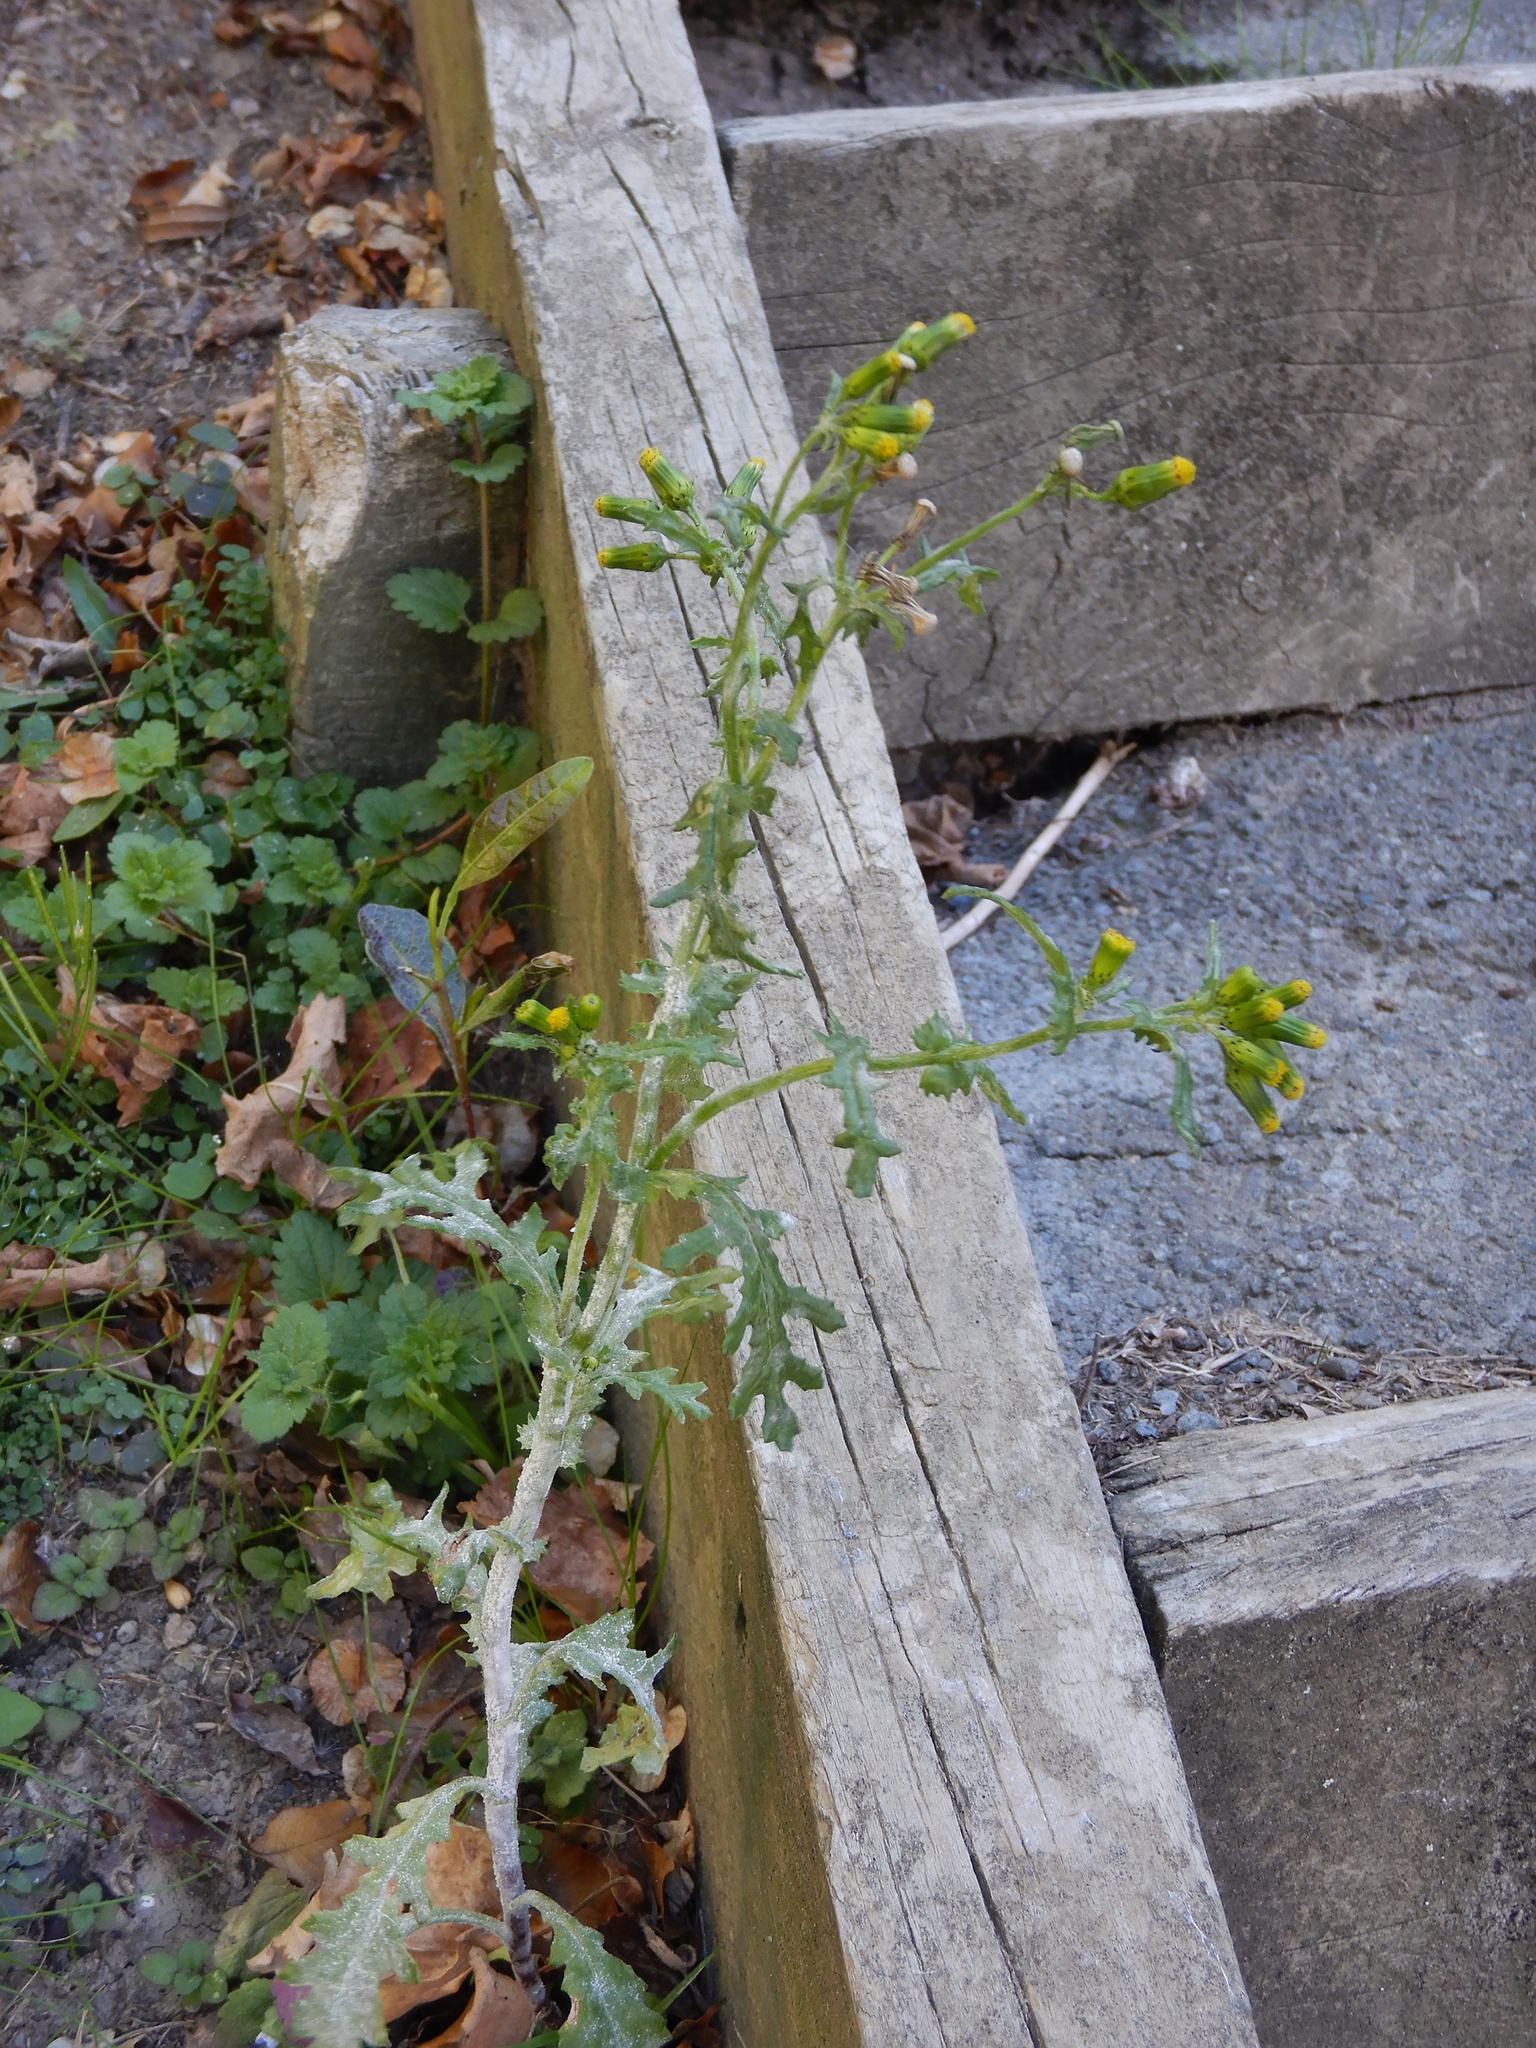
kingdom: Plantae
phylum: Tracheophyta
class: Magnoliopsida
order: Asterales
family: Asteraceae
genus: Senecio
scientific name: Senecio vulgaris
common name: Old-man-in-the-spring
